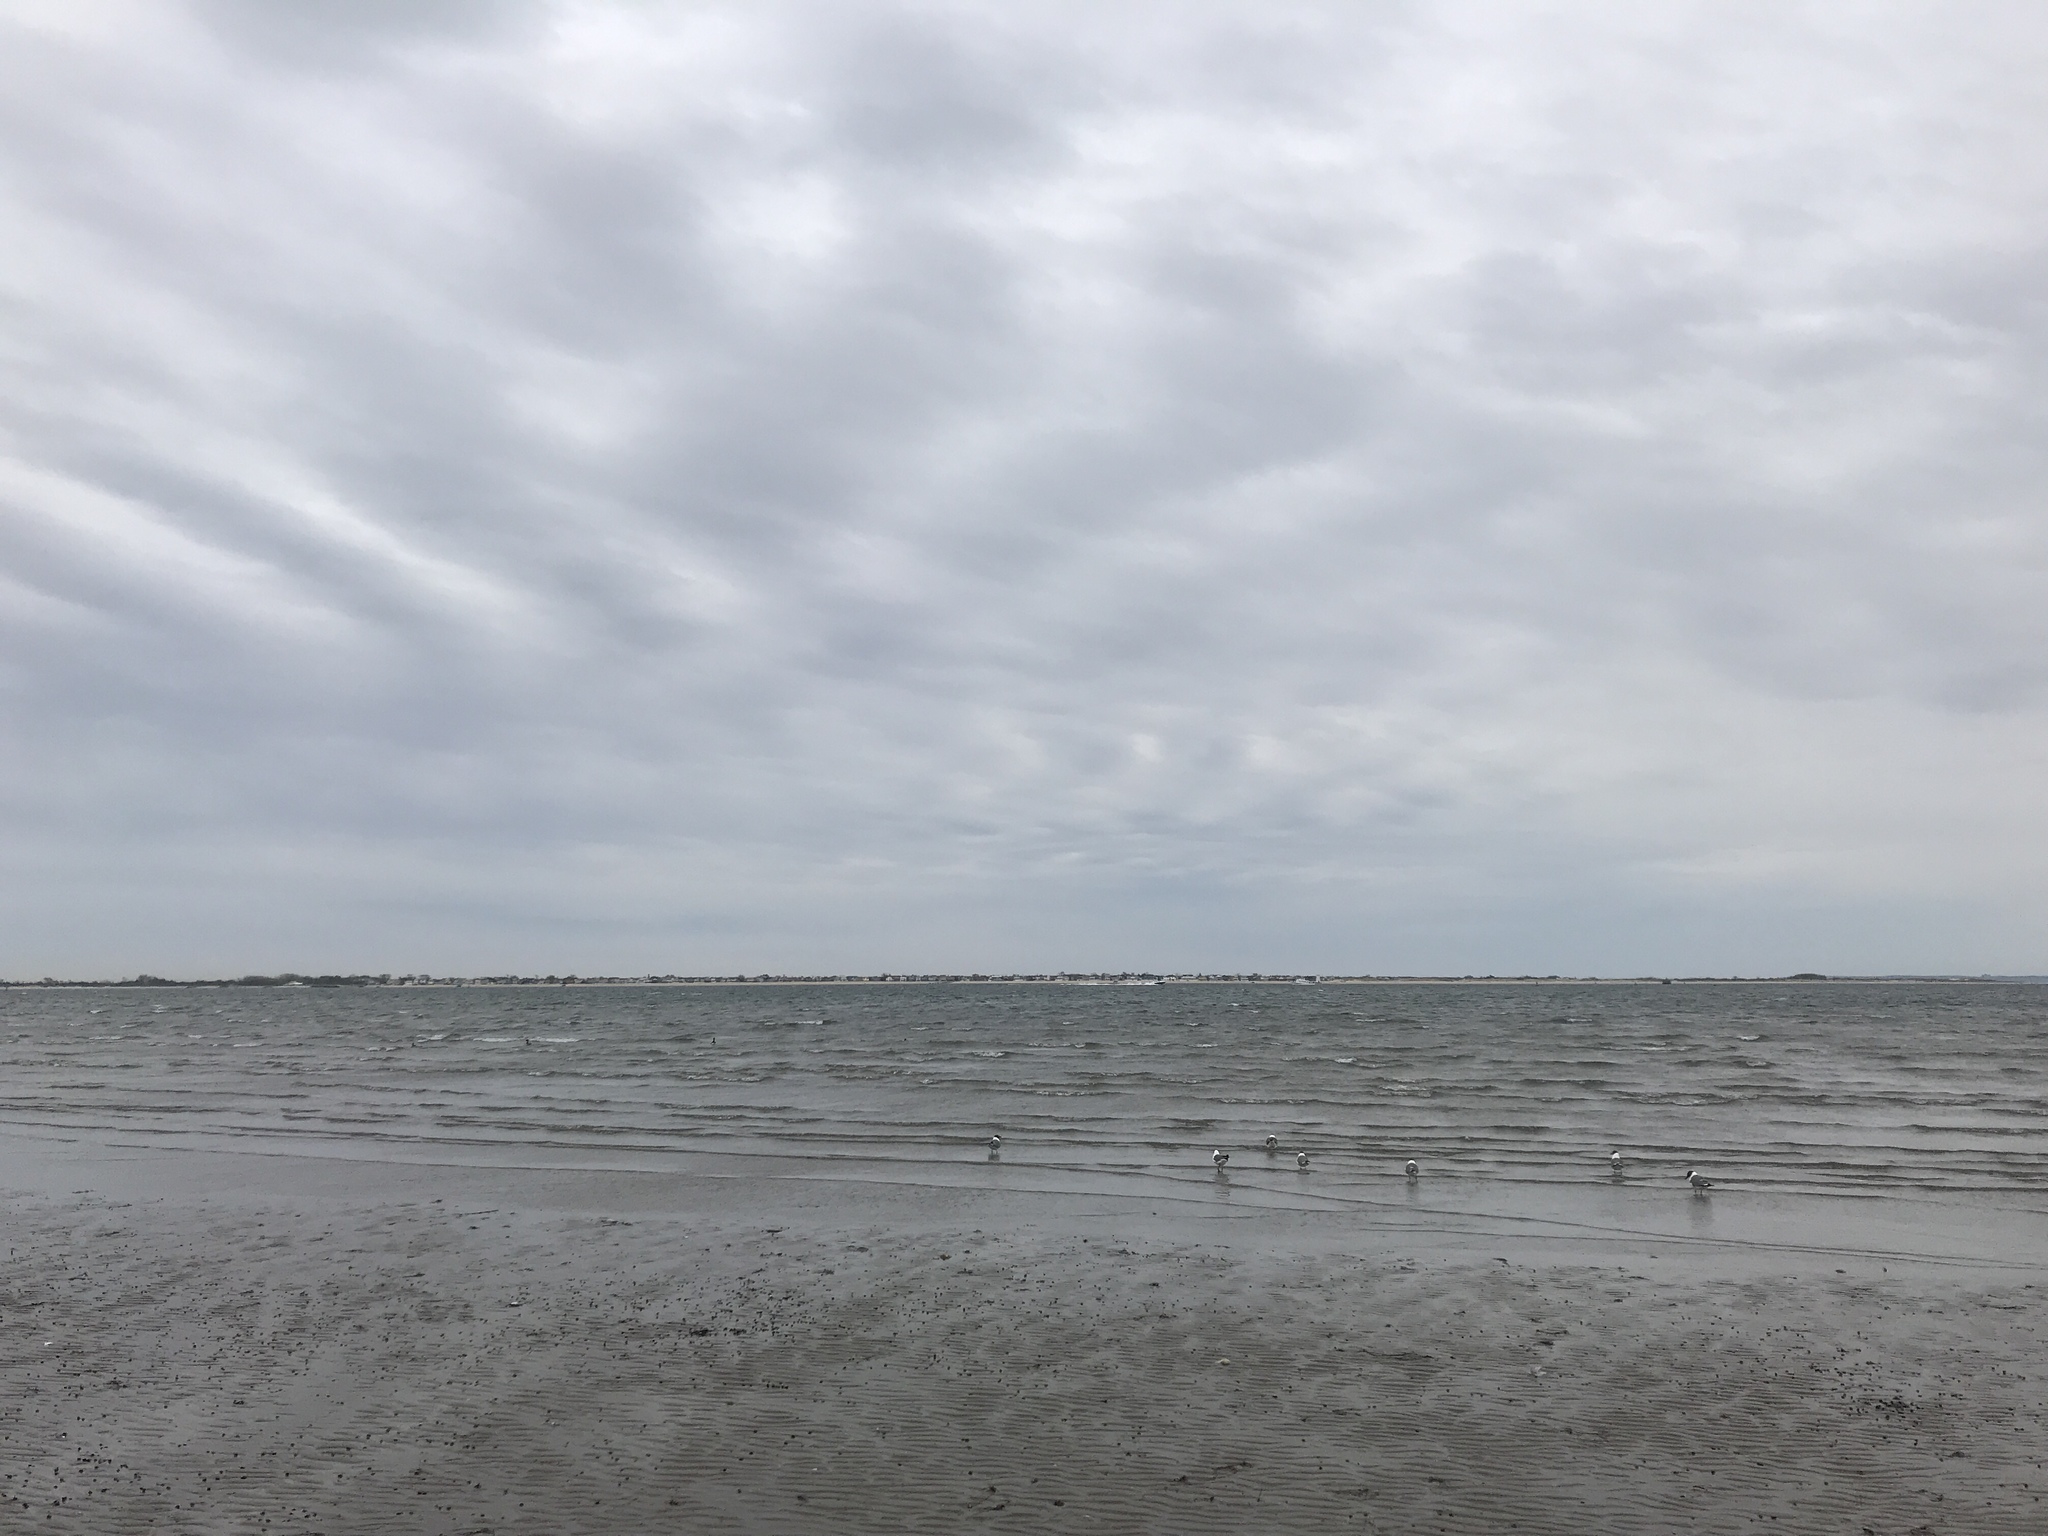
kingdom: Animalia
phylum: Chordata
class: Aves
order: Charadriiformes
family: Laridae
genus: Leucophaeus
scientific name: Leucophaeus atricilla
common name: Laughing gull
